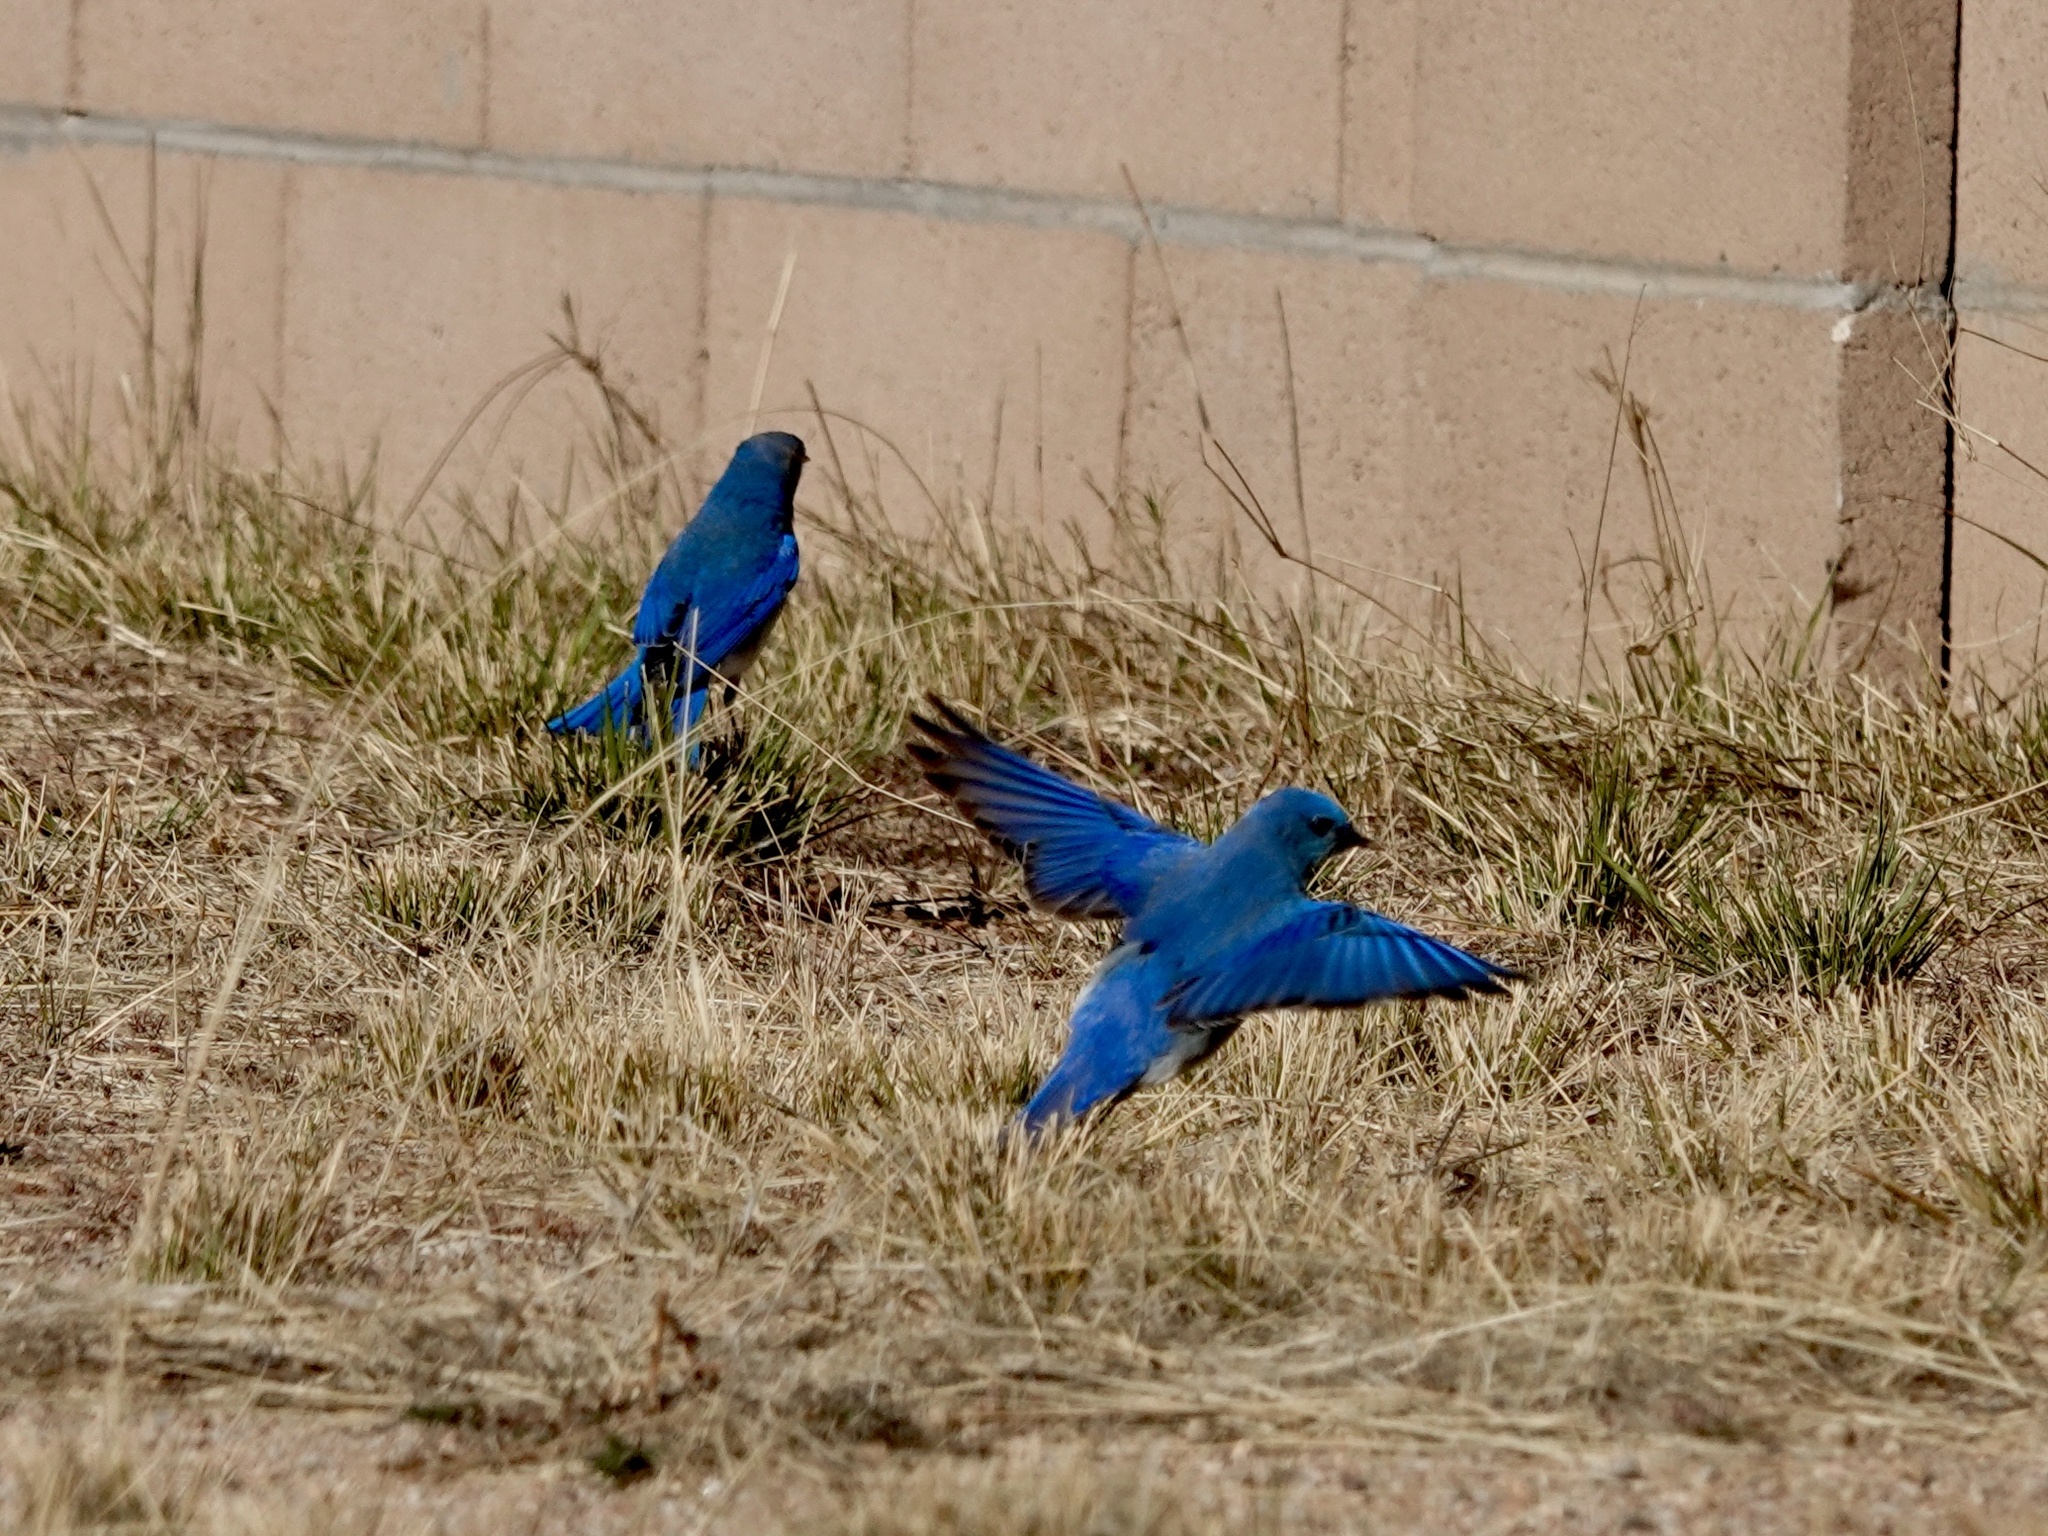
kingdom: Animalia
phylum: Chordata
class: Aves
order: Passeriformes
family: Turdidae
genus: Sialia
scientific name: Sialia currucoides
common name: Mountain bluebird
